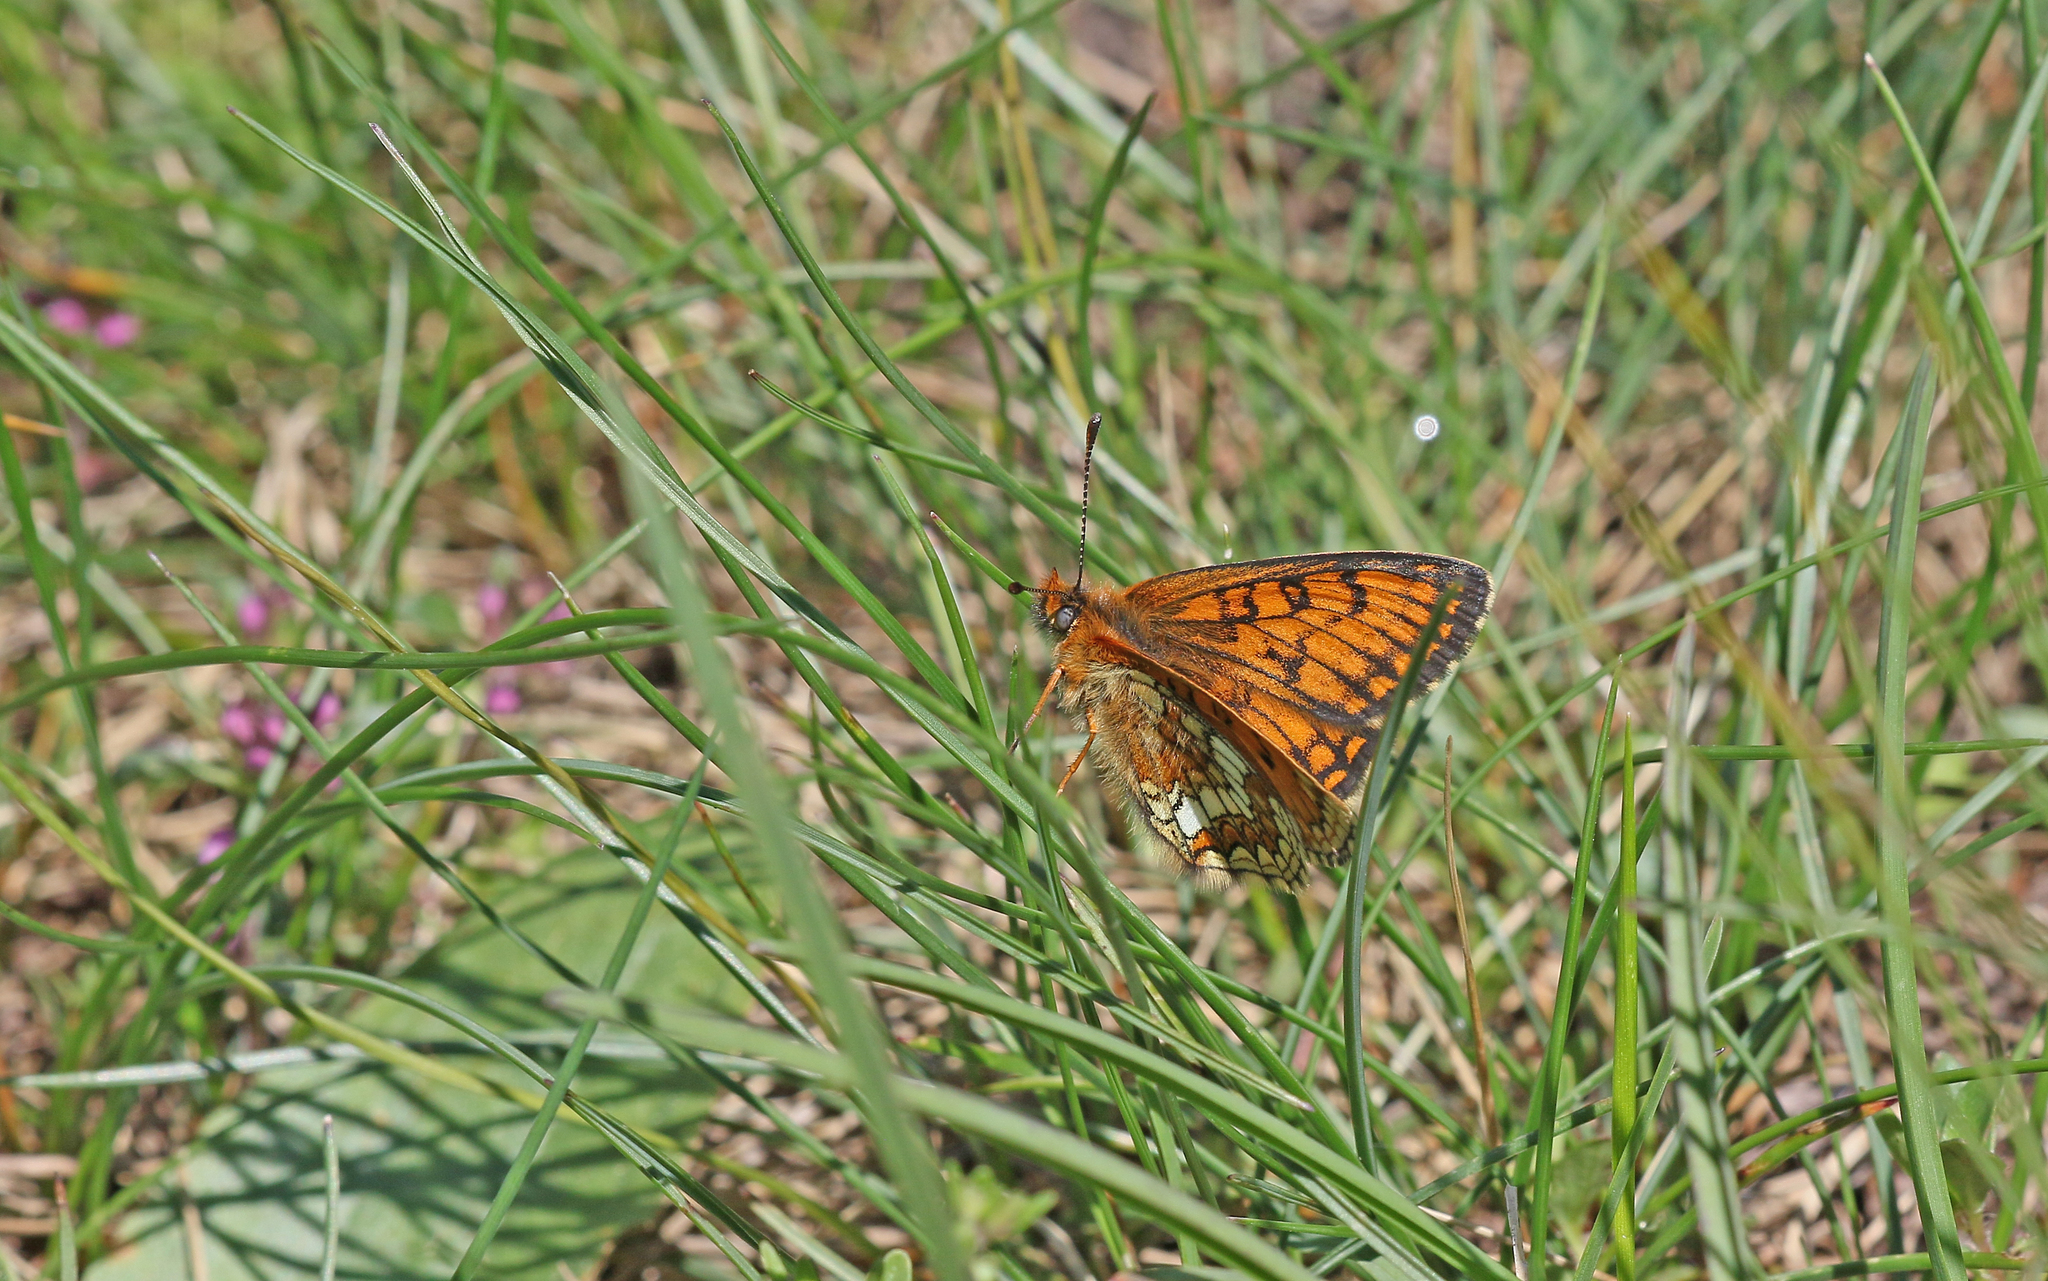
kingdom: Animalia
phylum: Arthropoda
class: Insecta
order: Lepidoptera
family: Nymphalidae
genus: Melitaea
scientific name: Melitaea varia
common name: Grisons fritillary
